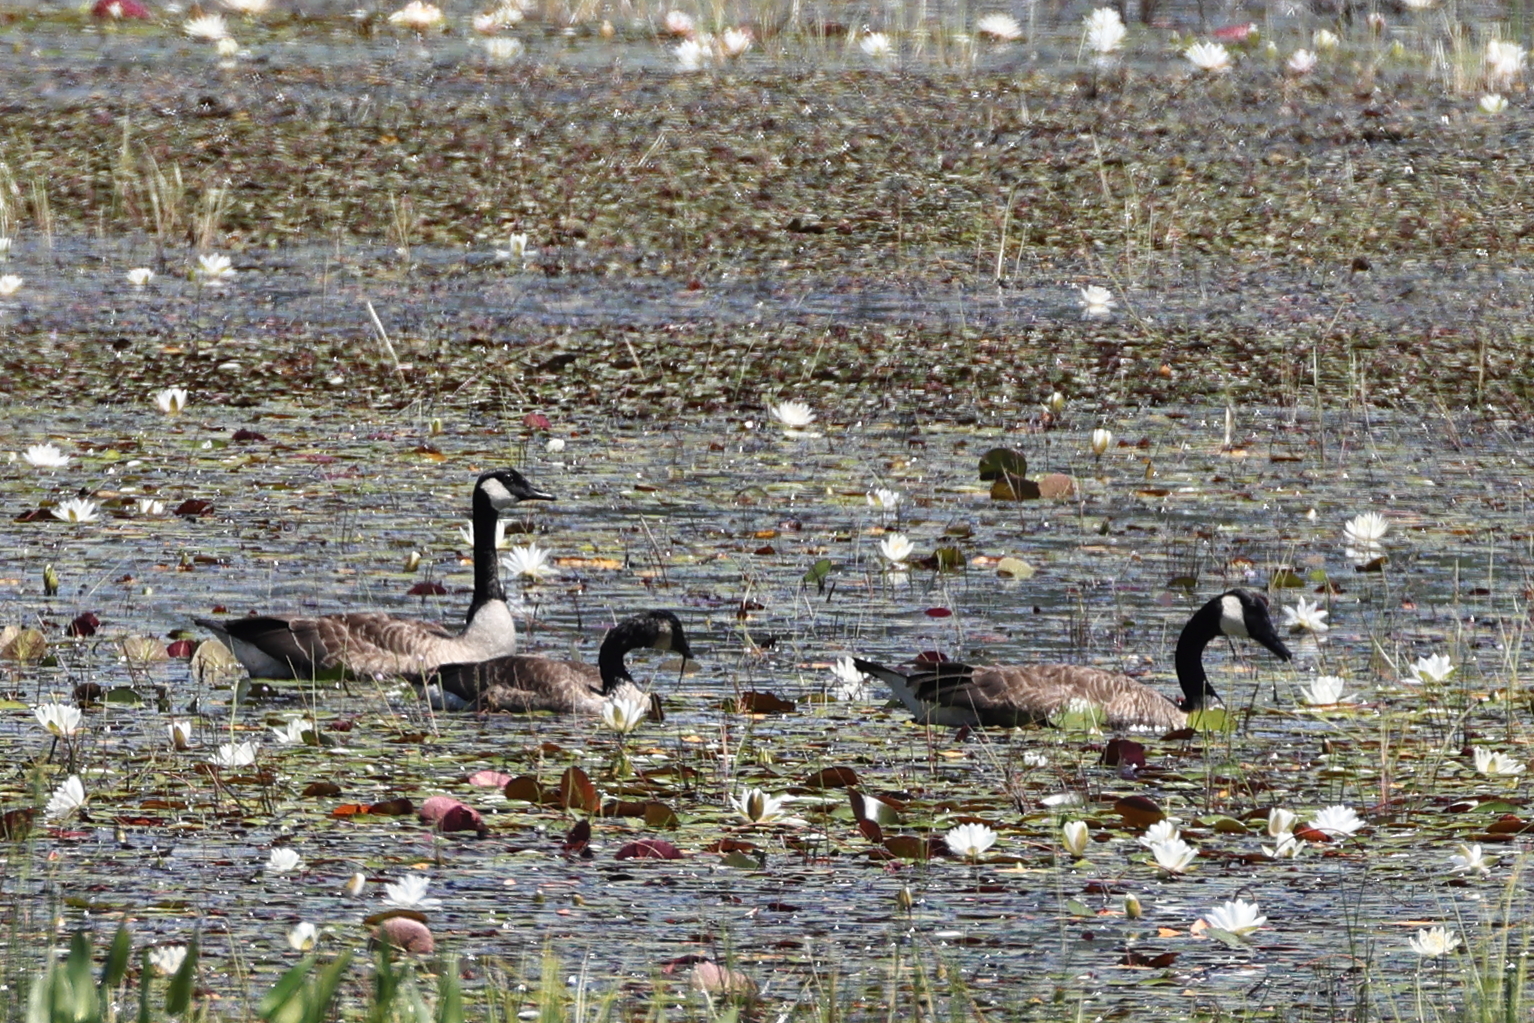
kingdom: Animalia
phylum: Chordata
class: Aves
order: Anseriformes
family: Anatidae
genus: Branta
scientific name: Branta canadensis
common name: Canada goose
